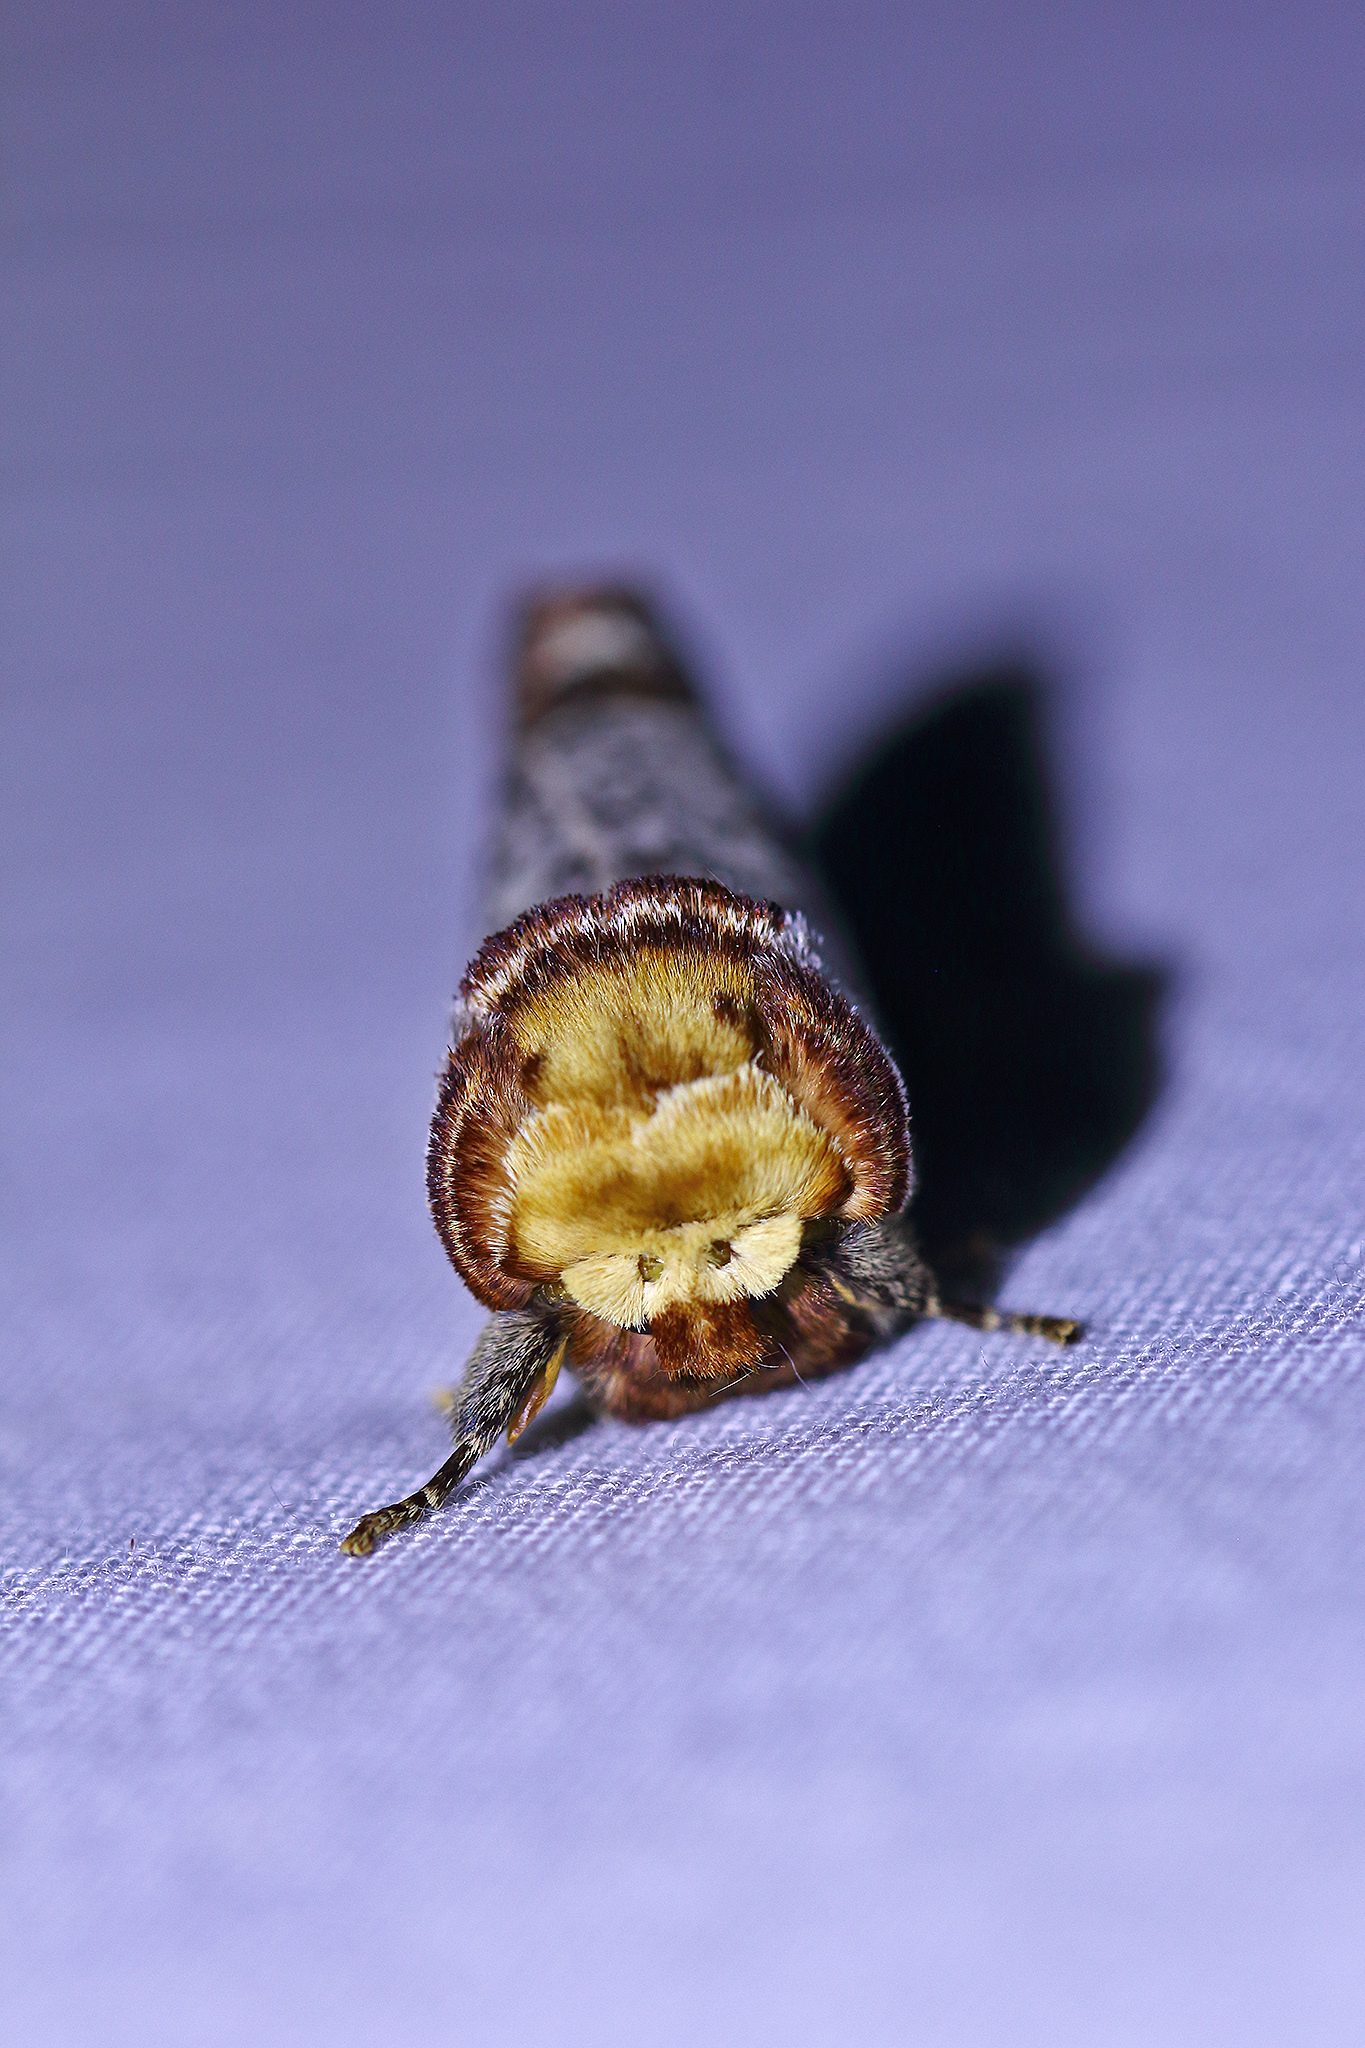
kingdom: Animalia
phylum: Arthropoda
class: Insecta
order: Lepidoptera
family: Notodontidae
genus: Phalera
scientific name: Phalera bucephala
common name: Buff-tip
